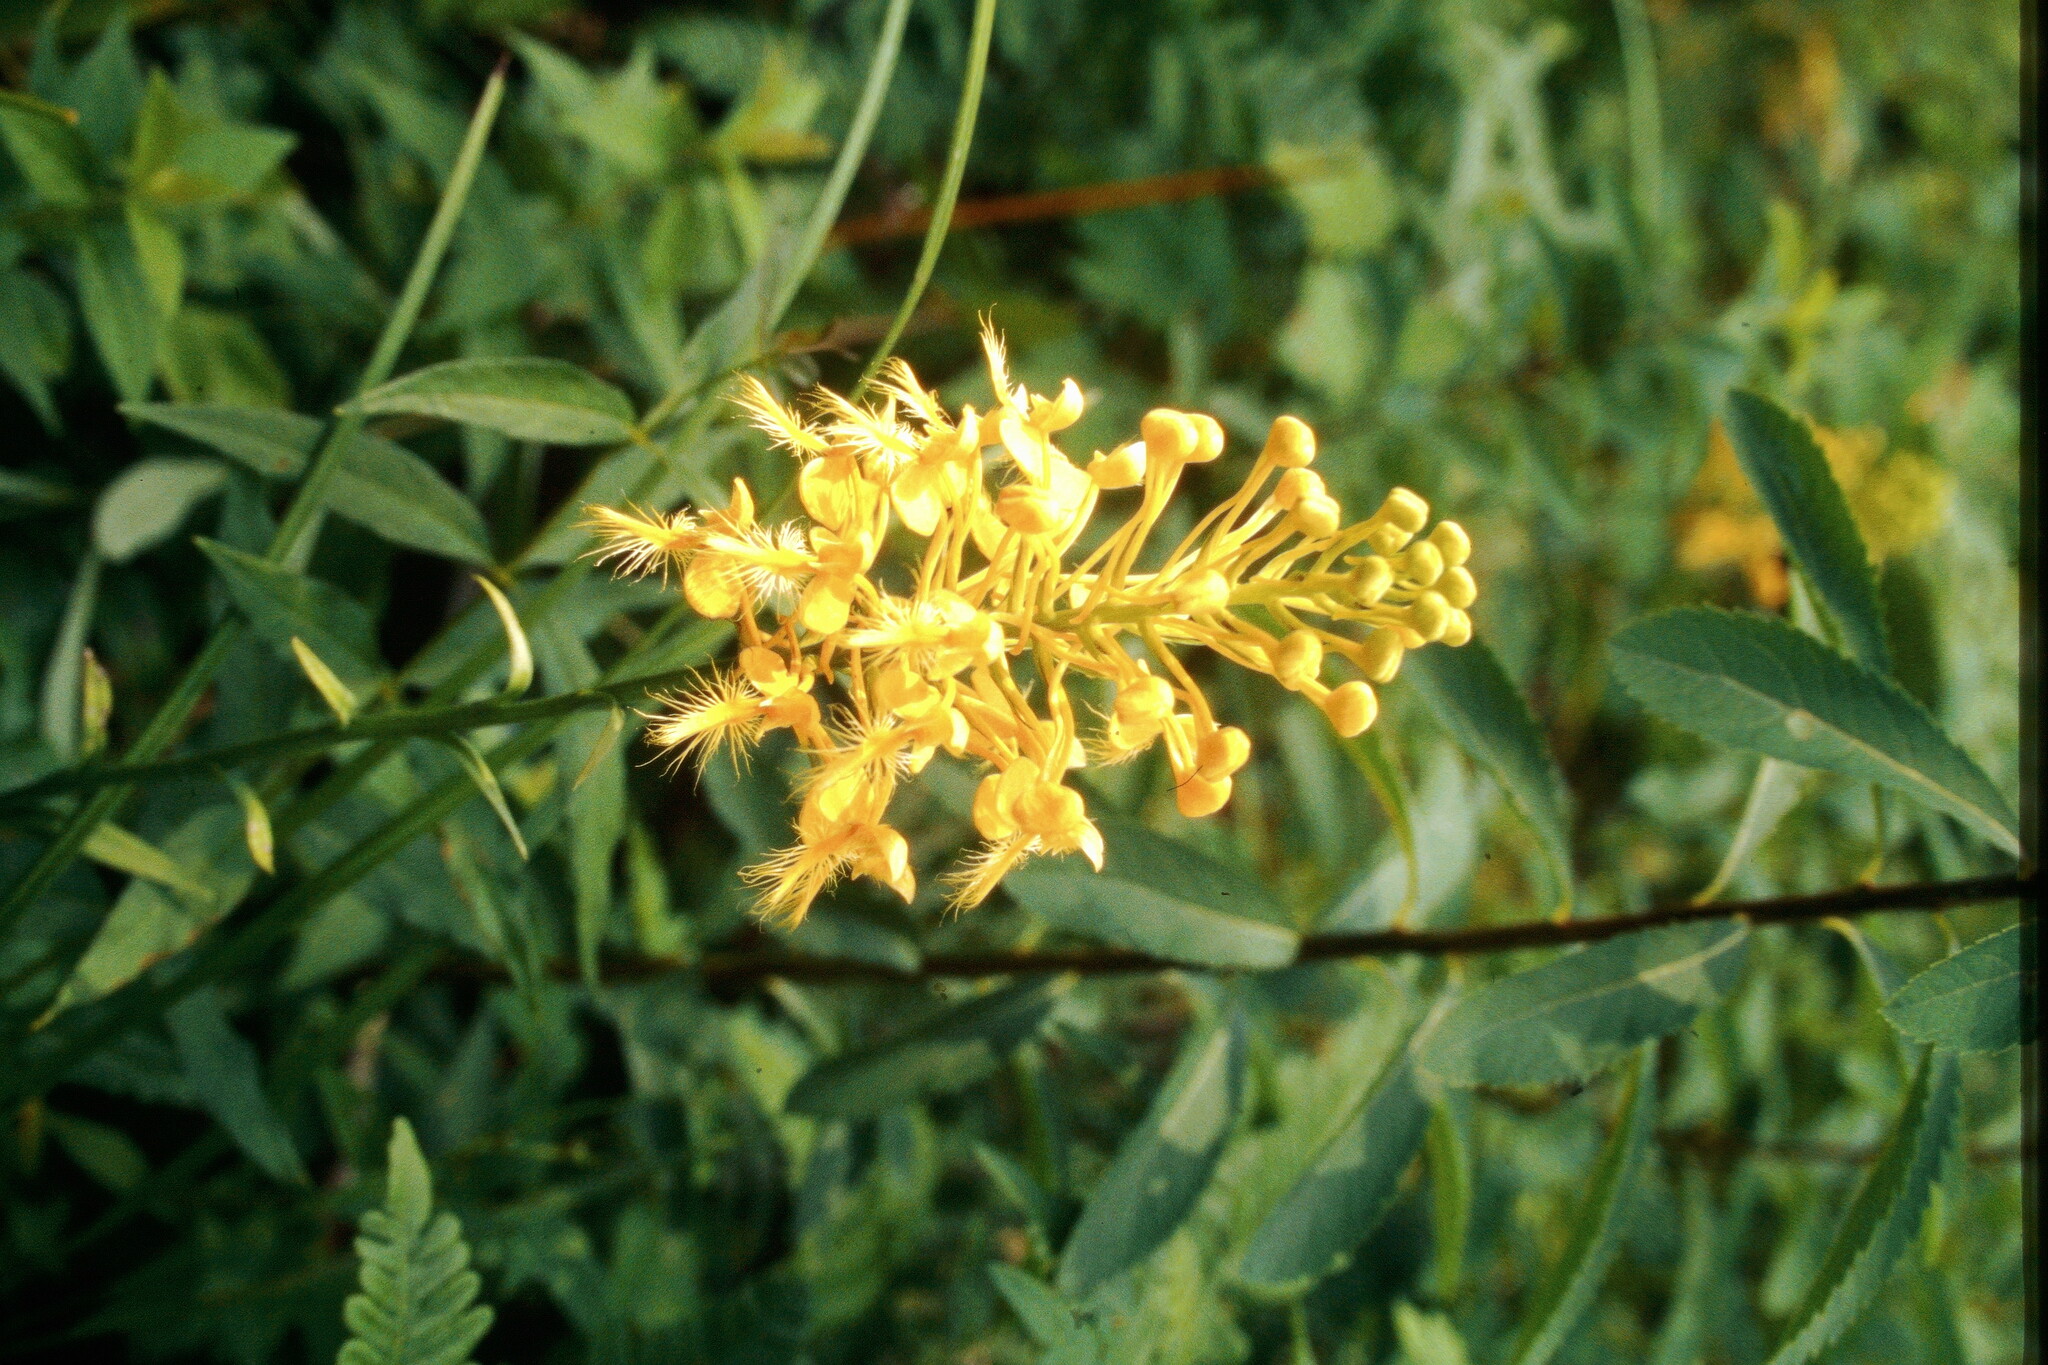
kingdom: Plantae
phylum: Tracheophyta
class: Liliopsida
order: Asparagales
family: Orchidaceae
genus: Platanthera
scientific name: Platanthera ciliaris
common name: Yellow fringed orchid
